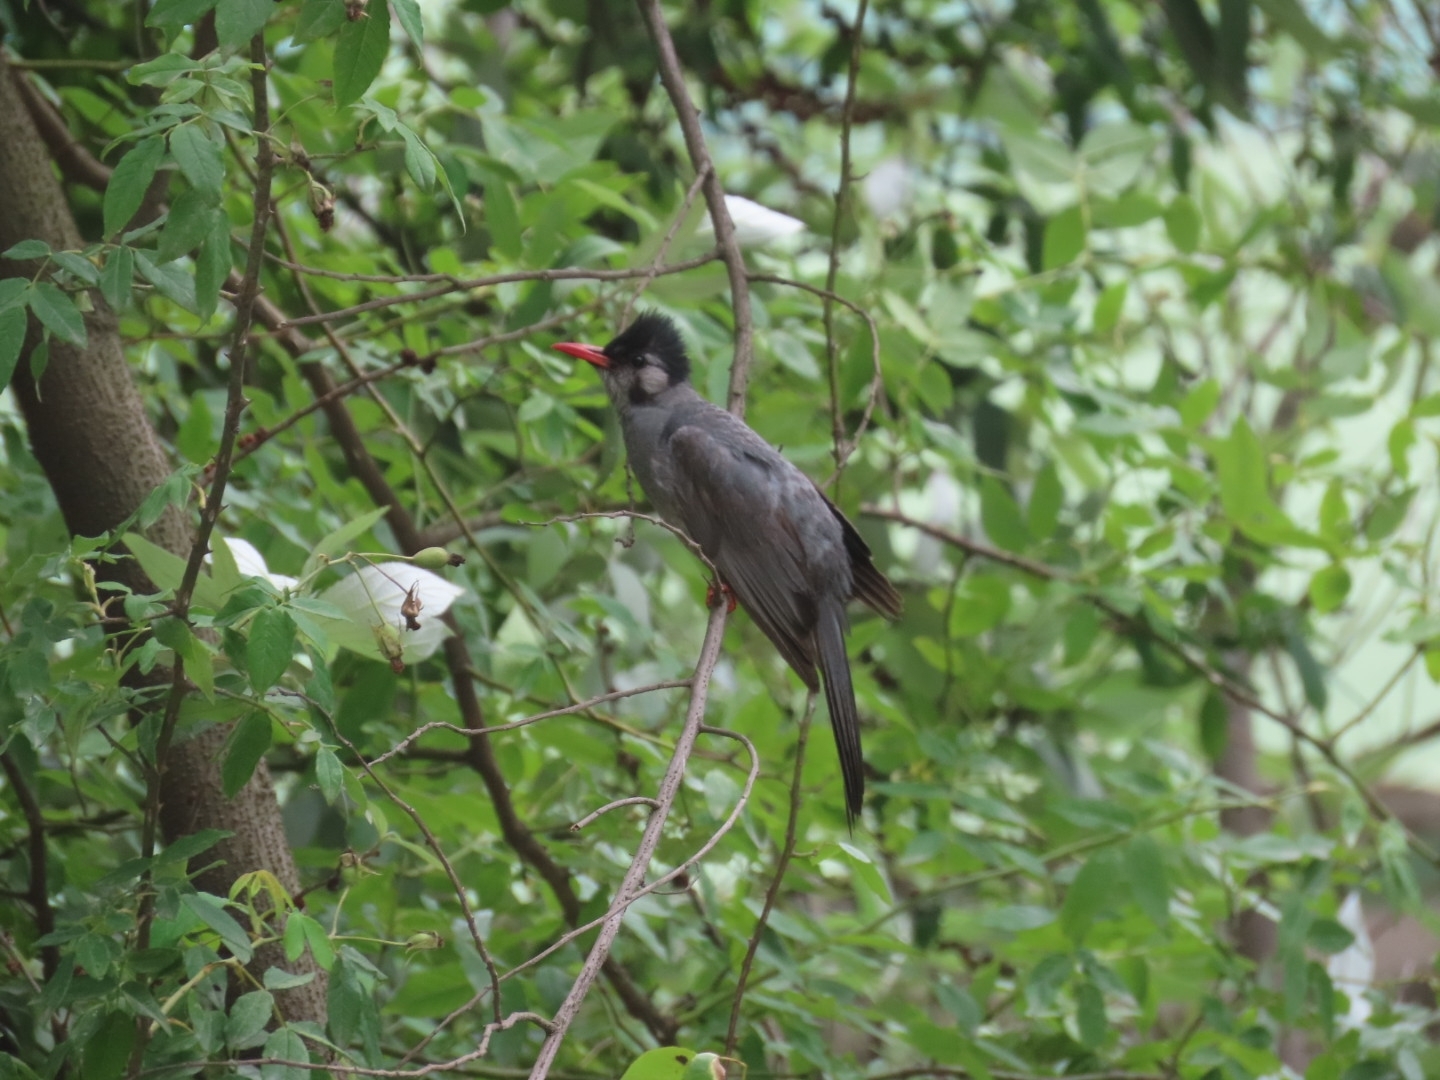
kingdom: Animalia
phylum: Chordata
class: Aves
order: Passeriformes
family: Pycnonotidae
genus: Hypsipetes
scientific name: Hypsipetes leucocephalus
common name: Black bulbul
